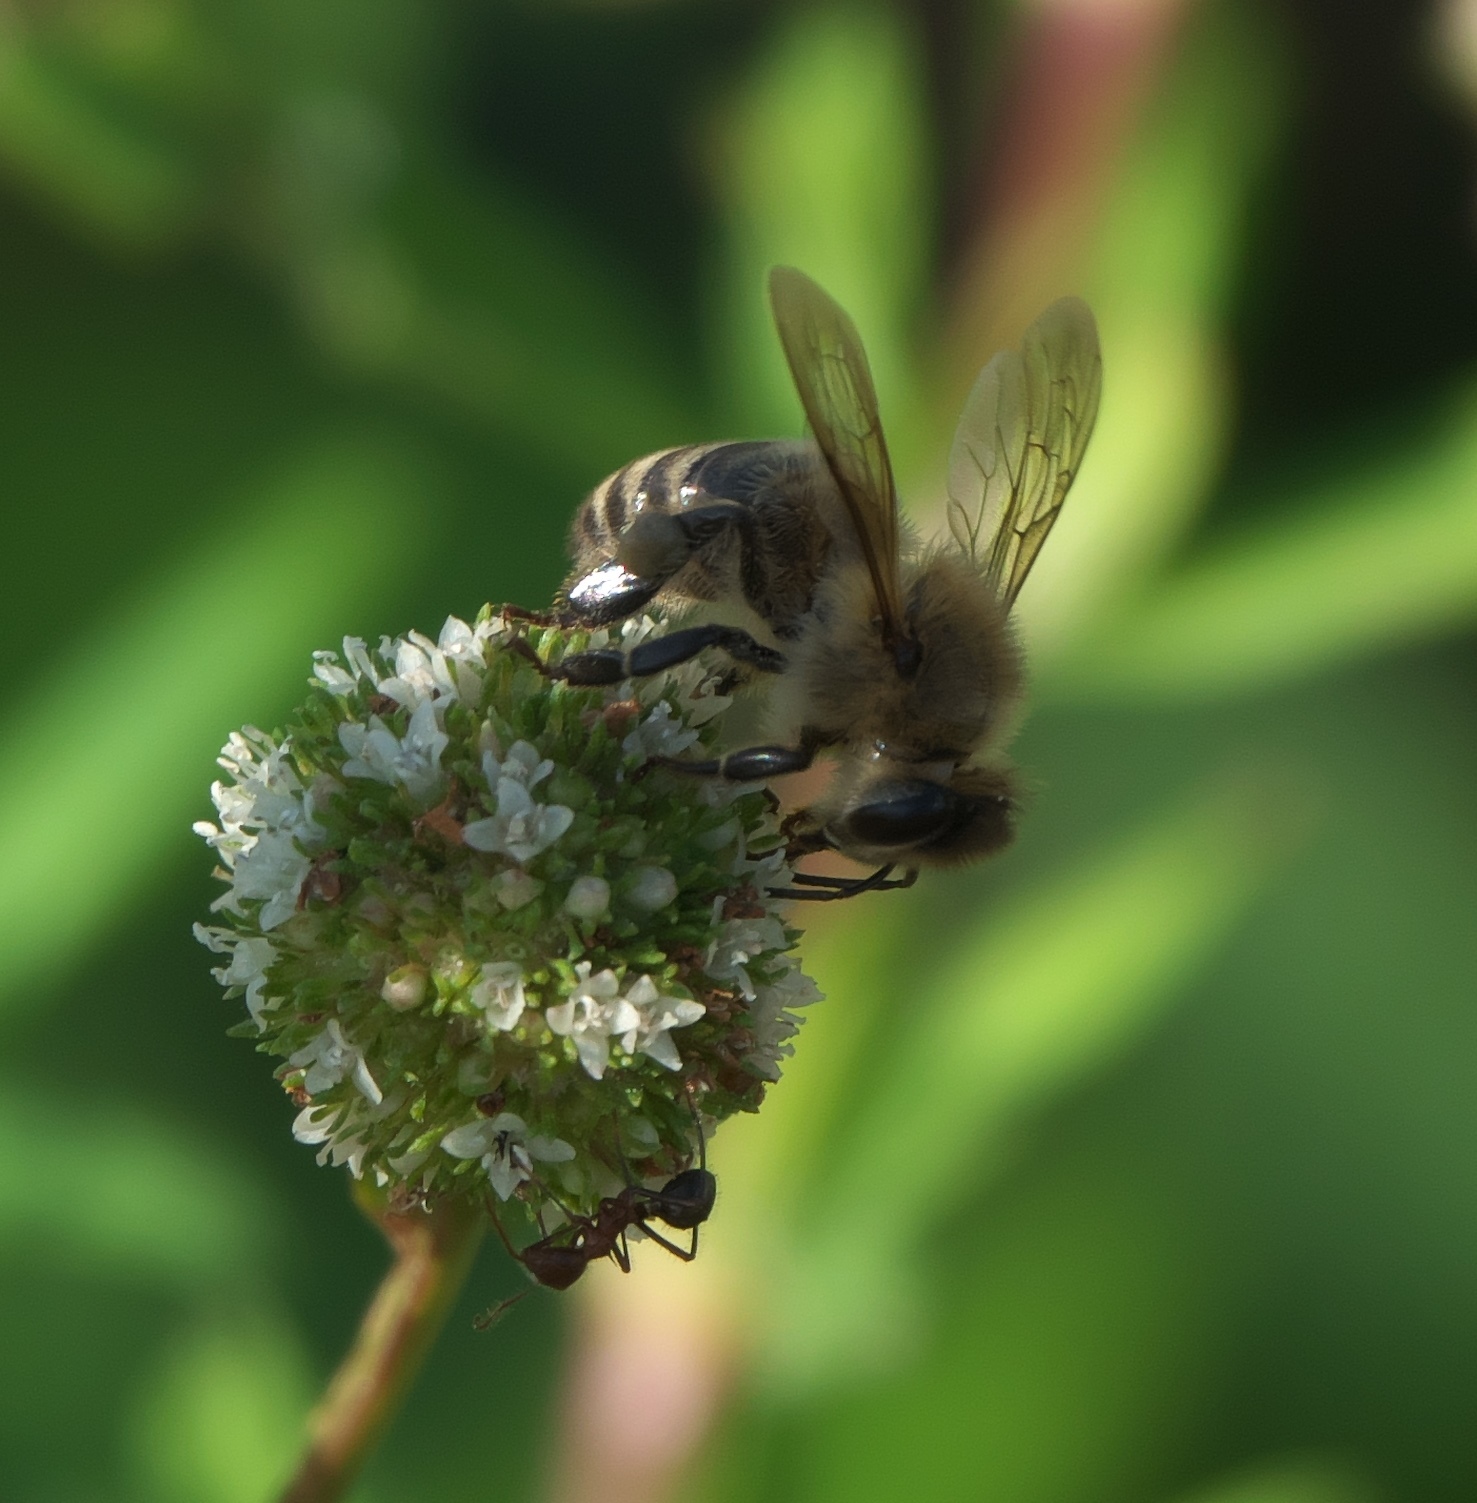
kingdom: Animalia
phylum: Arthropoda
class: Insecta
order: Hymenoptera
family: Apidae
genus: Apis
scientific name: Apis mellifera
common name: Honey bee
